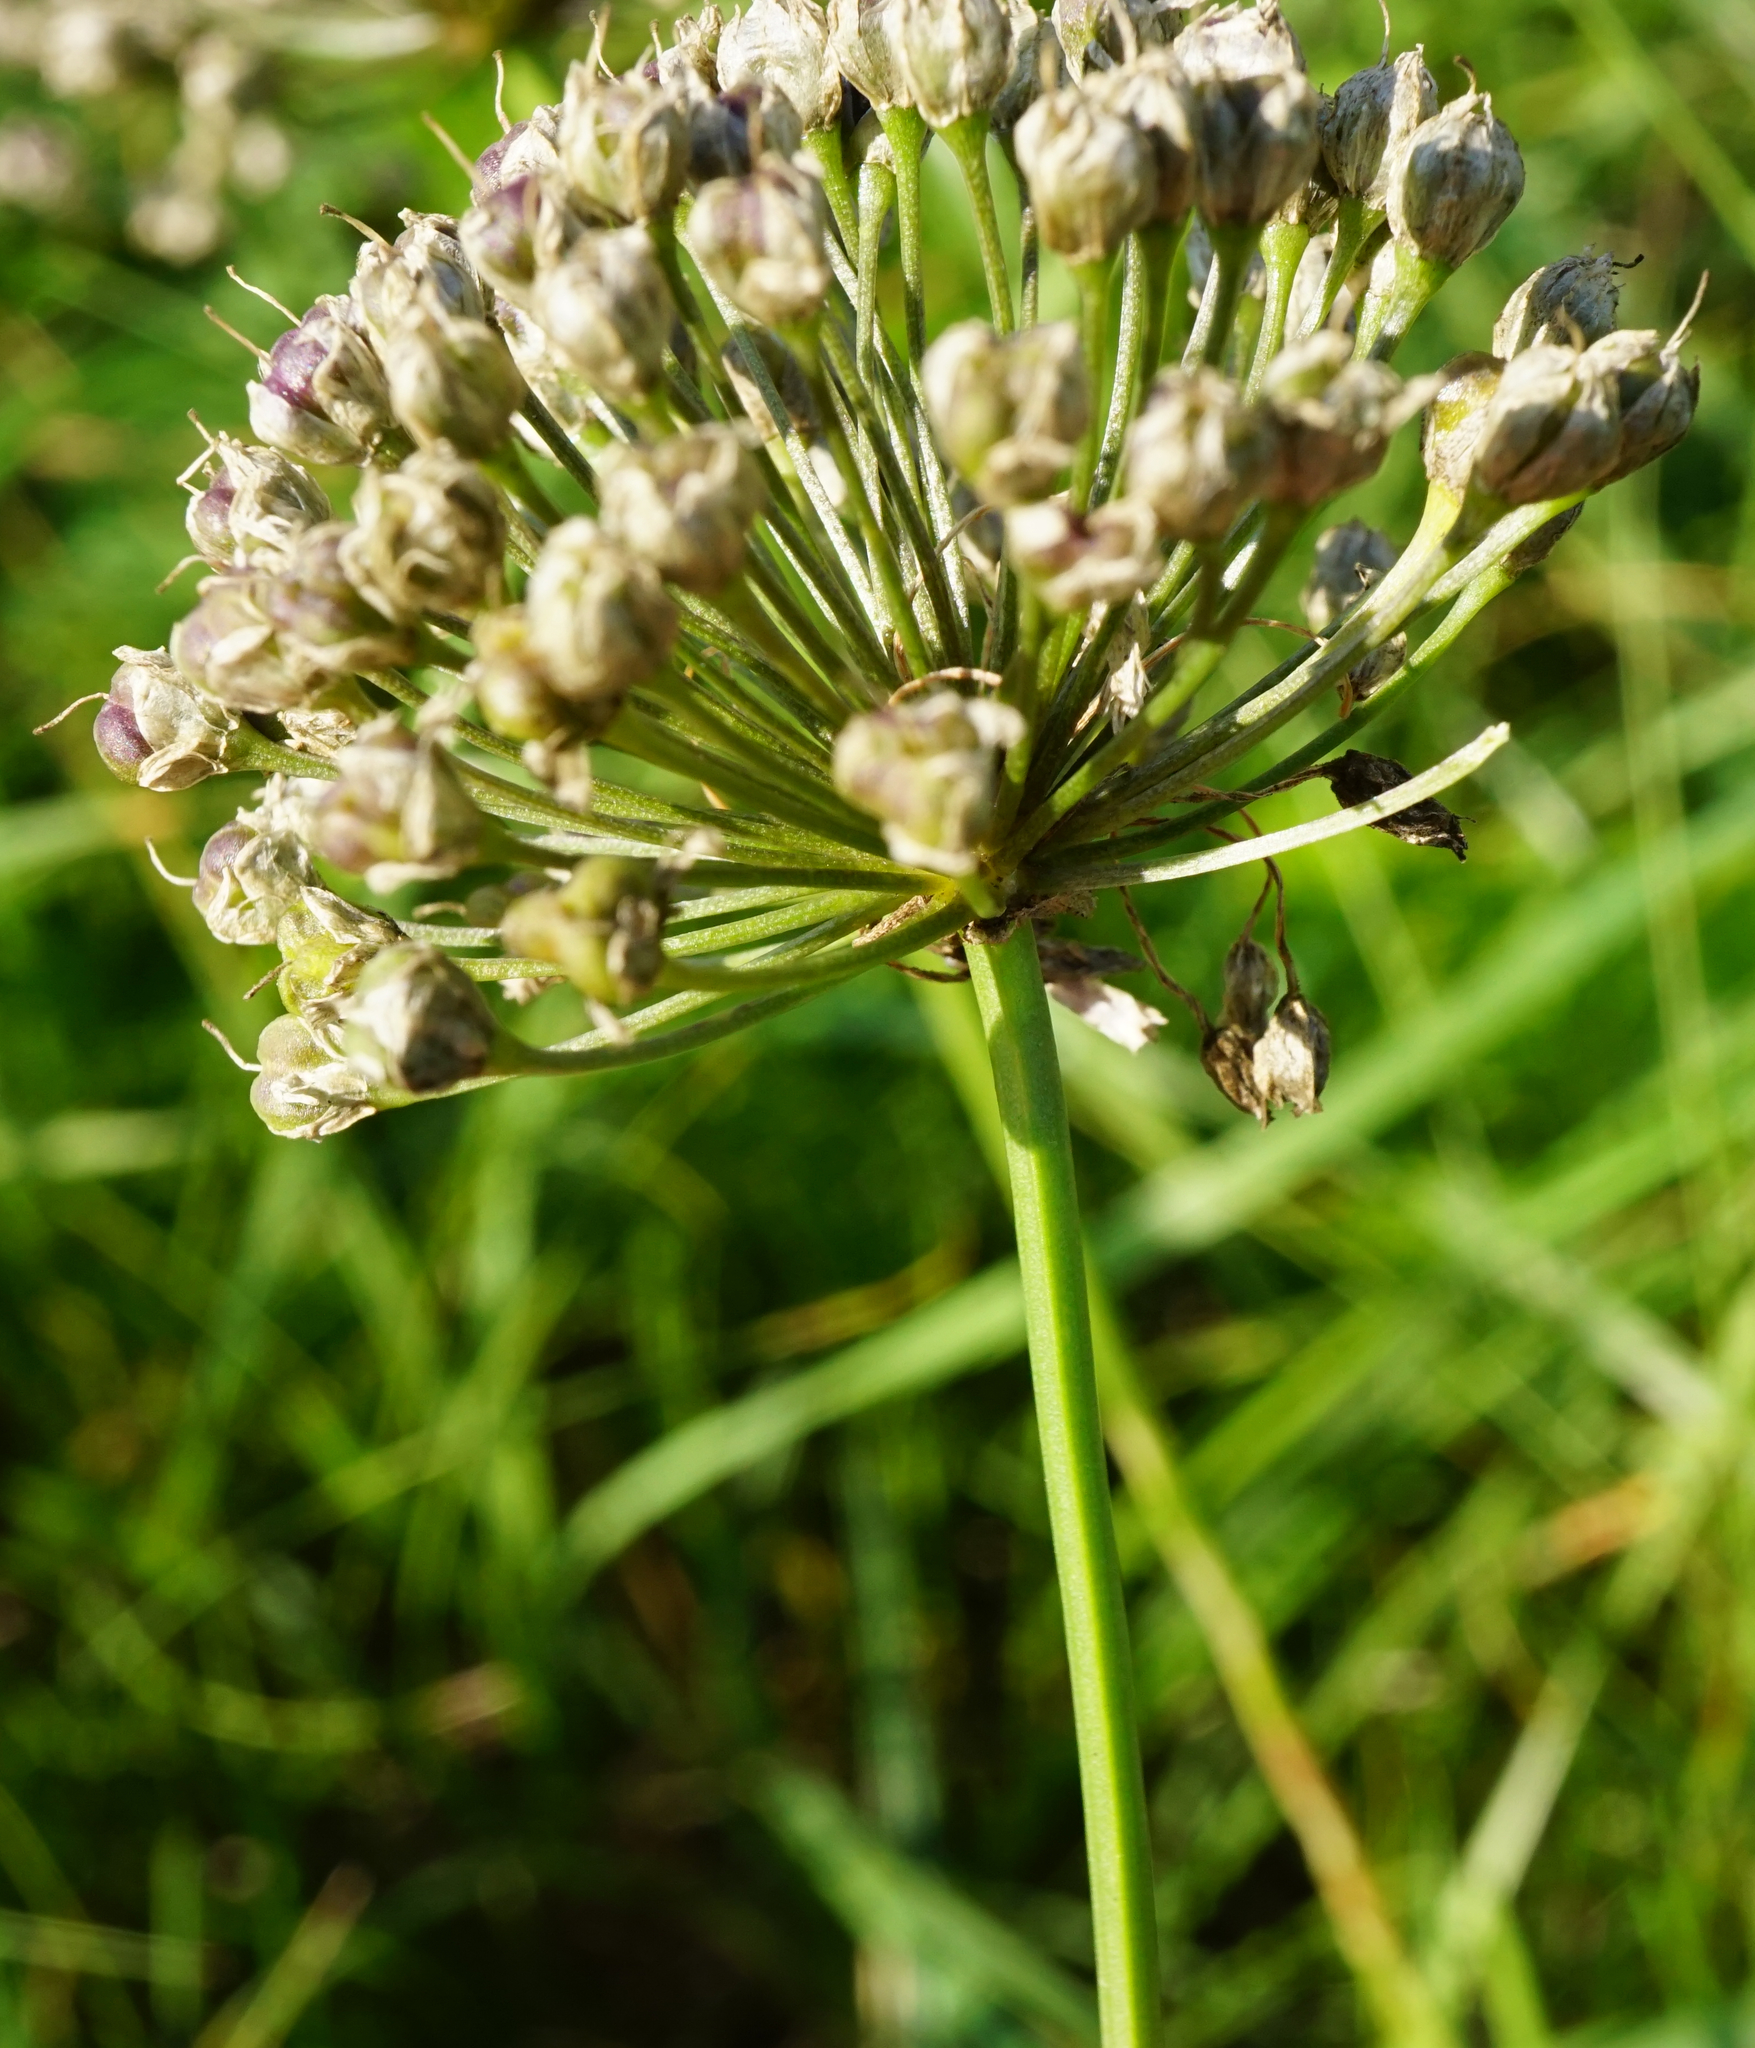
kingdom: Plantae
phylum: Tracheophyta
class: Liliopsida
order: Asparagales
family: Amaryllidaceae
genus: Allium
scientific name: Allium angulosum
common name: Mouse garlic
